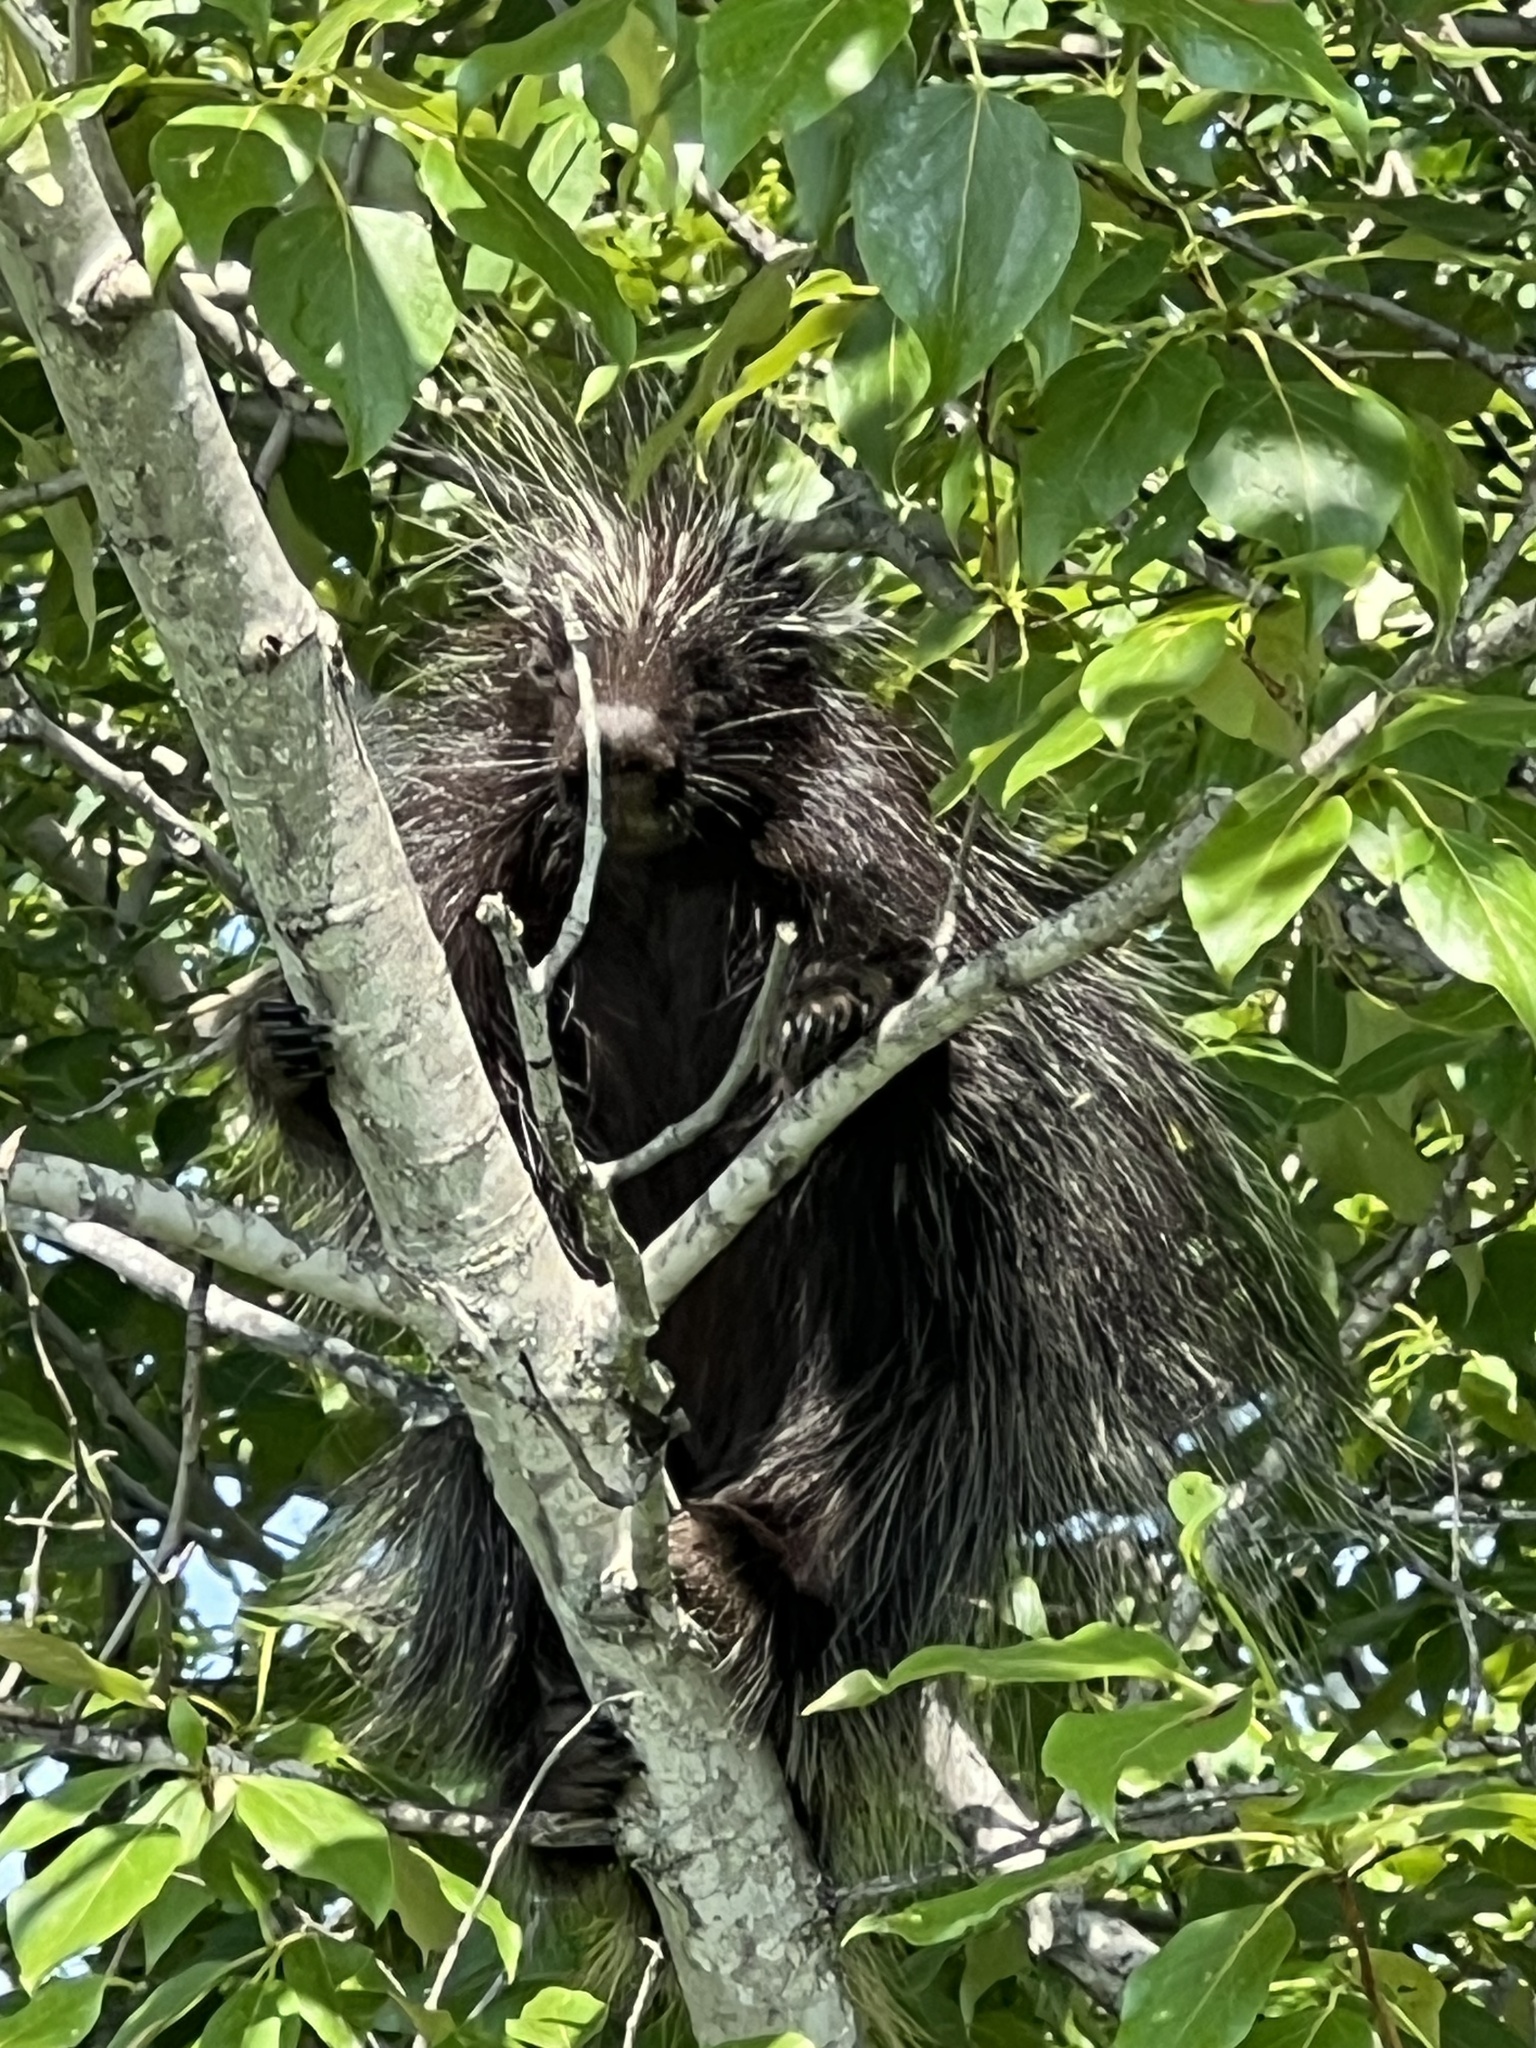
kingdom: Animalia
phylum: Chordata
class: Mammalia
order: Rodentia
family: Erethizontidae
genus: Erethizon
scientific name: Erethizon dorsatus
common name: North american porcupine
